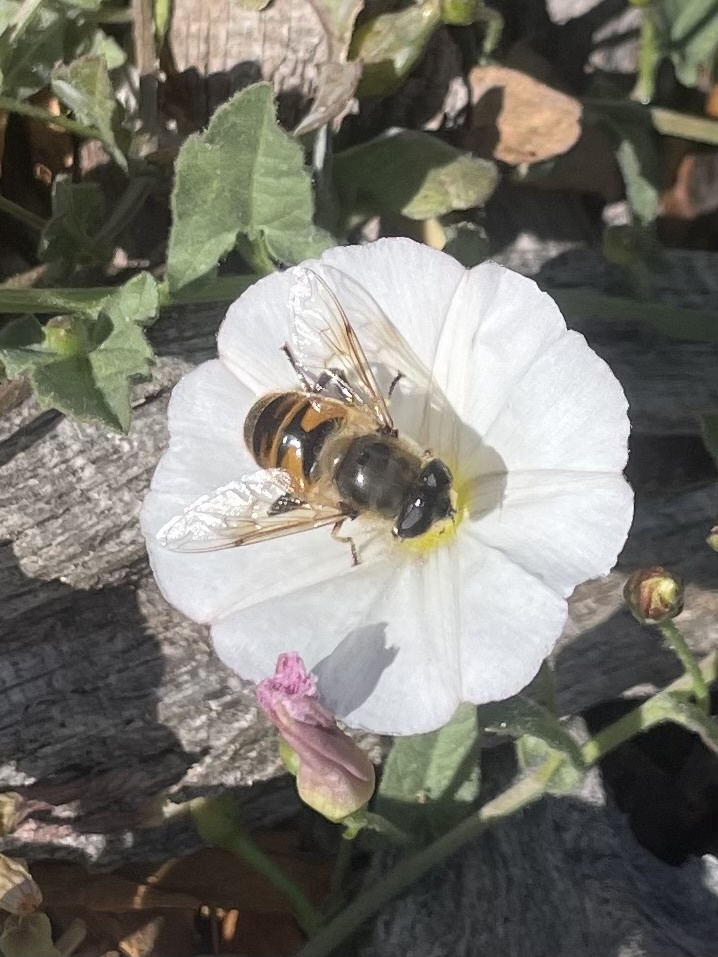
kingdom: Animalia
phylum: Arthropoda
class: Insecta
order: Diptera
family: Syrphidae
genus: Eristalis
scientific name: Eristalis tenax
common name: Drone fly
